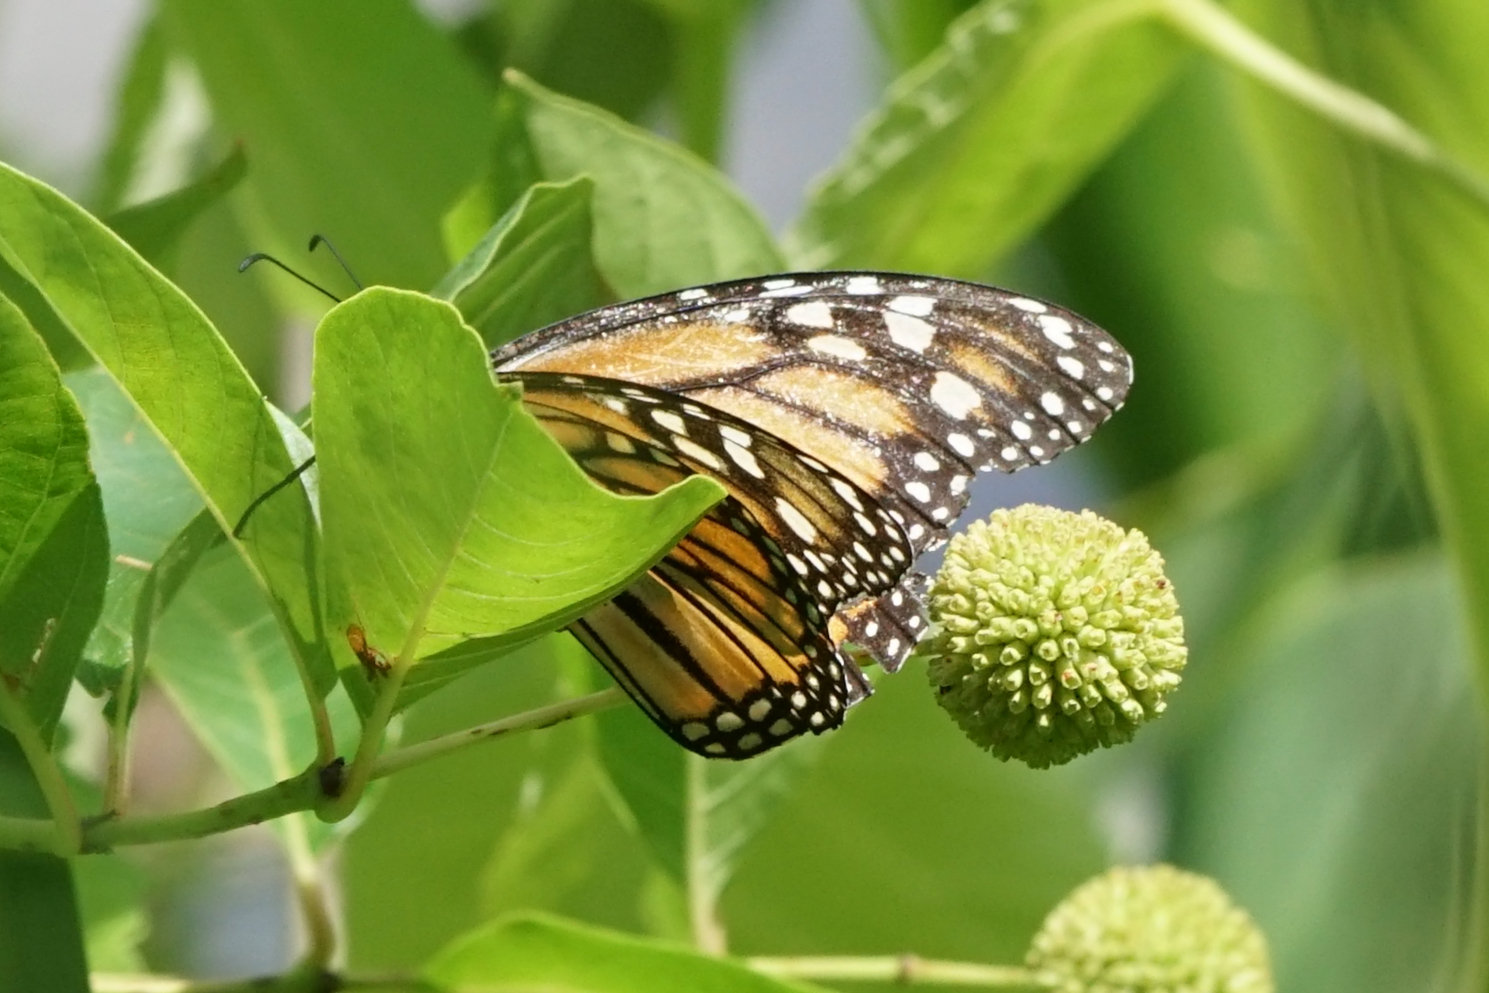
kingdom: Animalia
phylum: Arthropoda
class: Insecta
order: Lepidoptera
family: Nymphalidae
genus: Danaus
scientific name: Danaus plexippus
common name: Monarch
